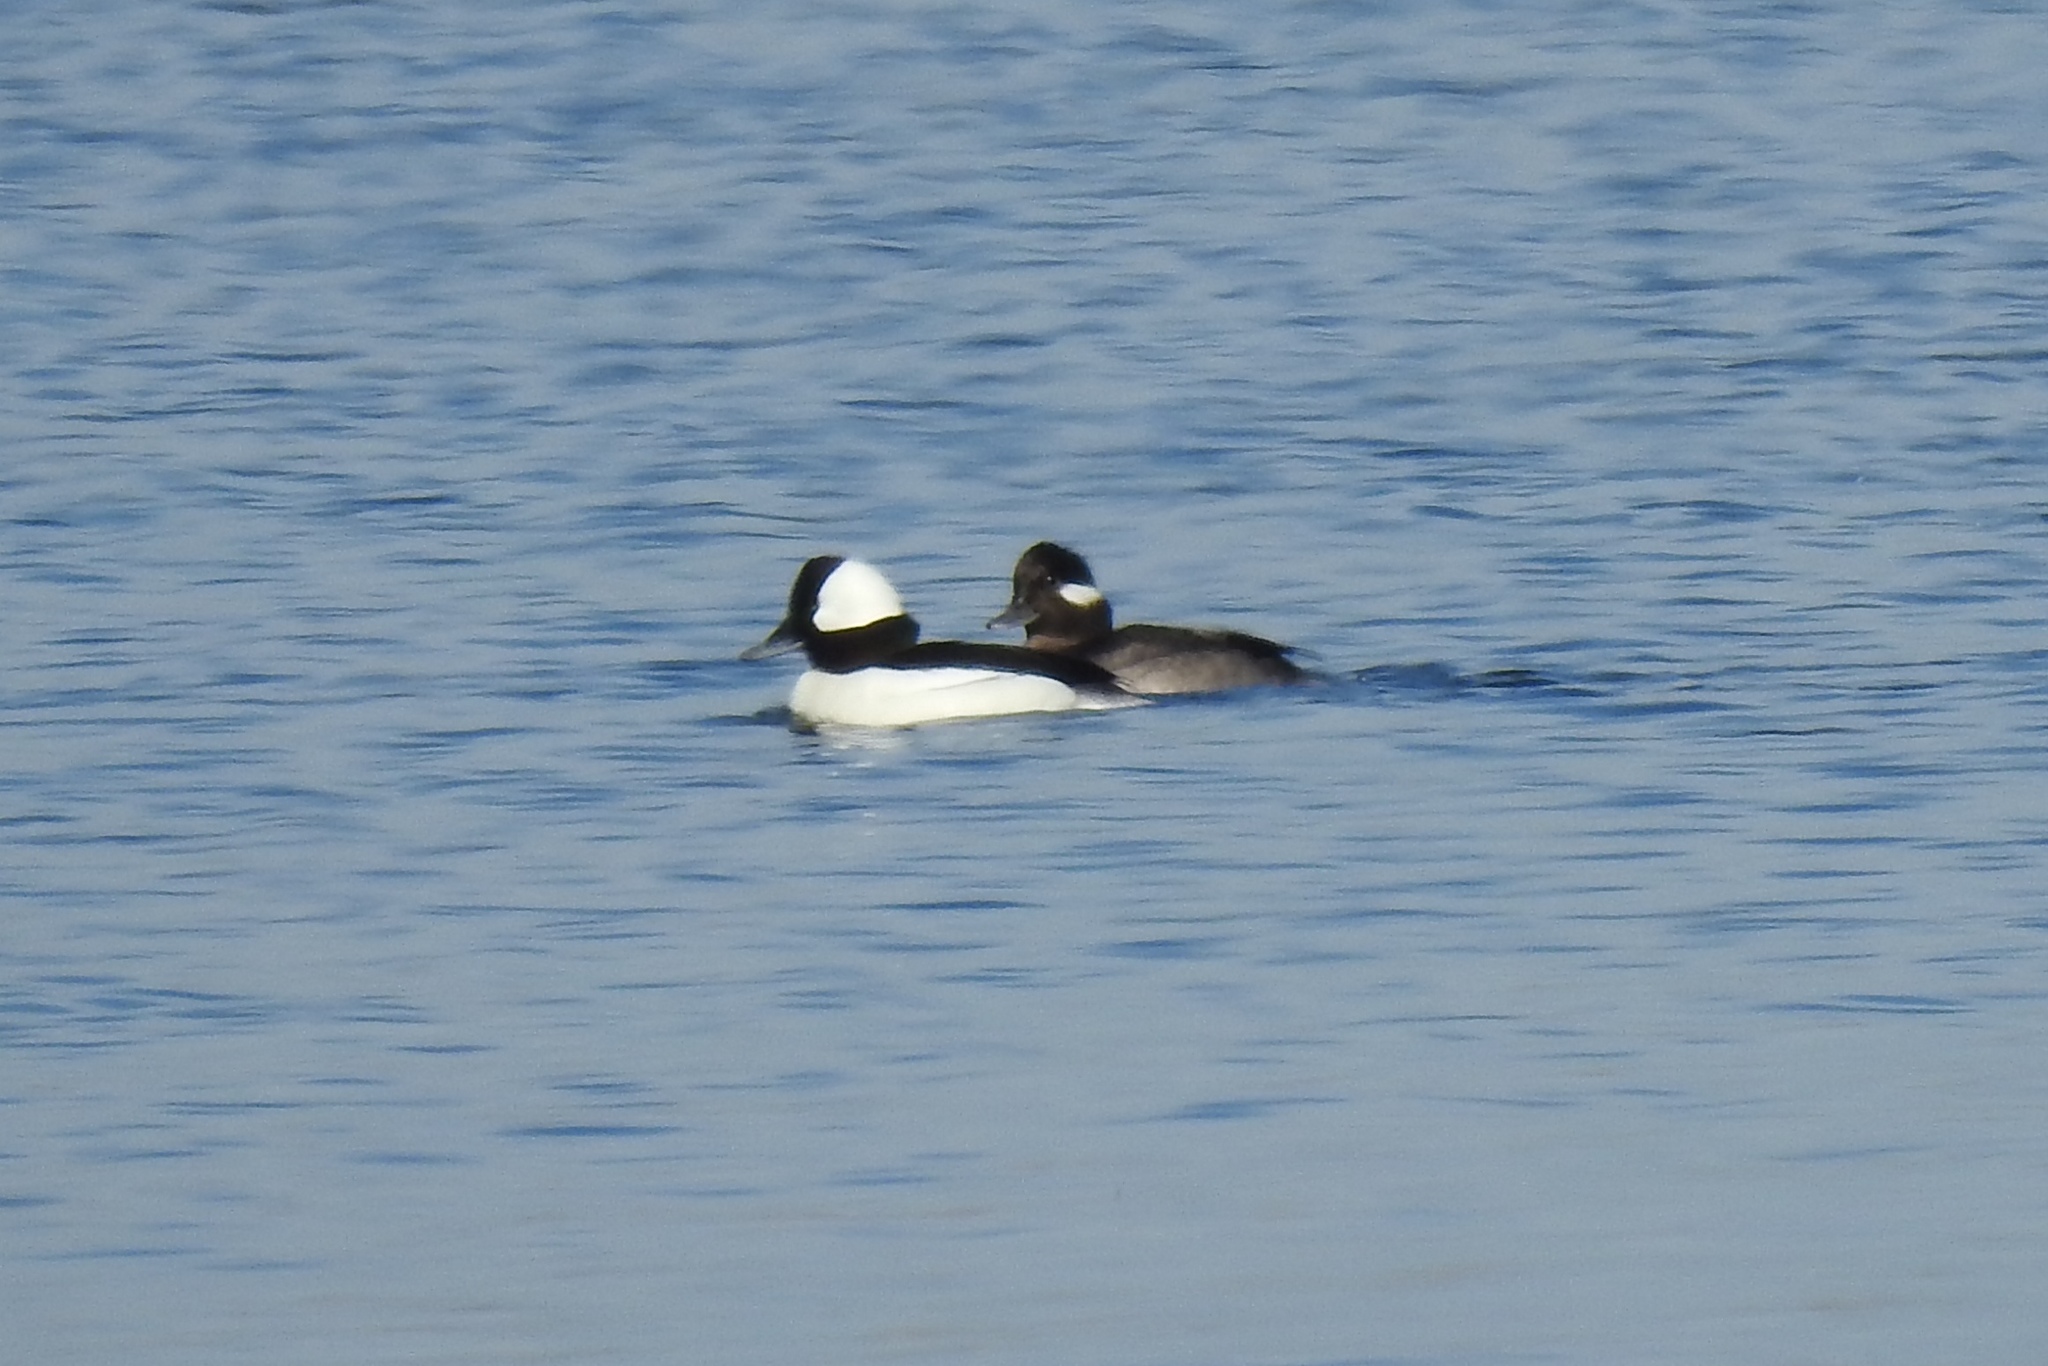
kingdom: Animalia
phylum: Chordata
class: Aves
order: Anseriformes
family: Anatidae
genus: Bucephala
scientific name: Bucephala albeola
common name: Bufflehead
